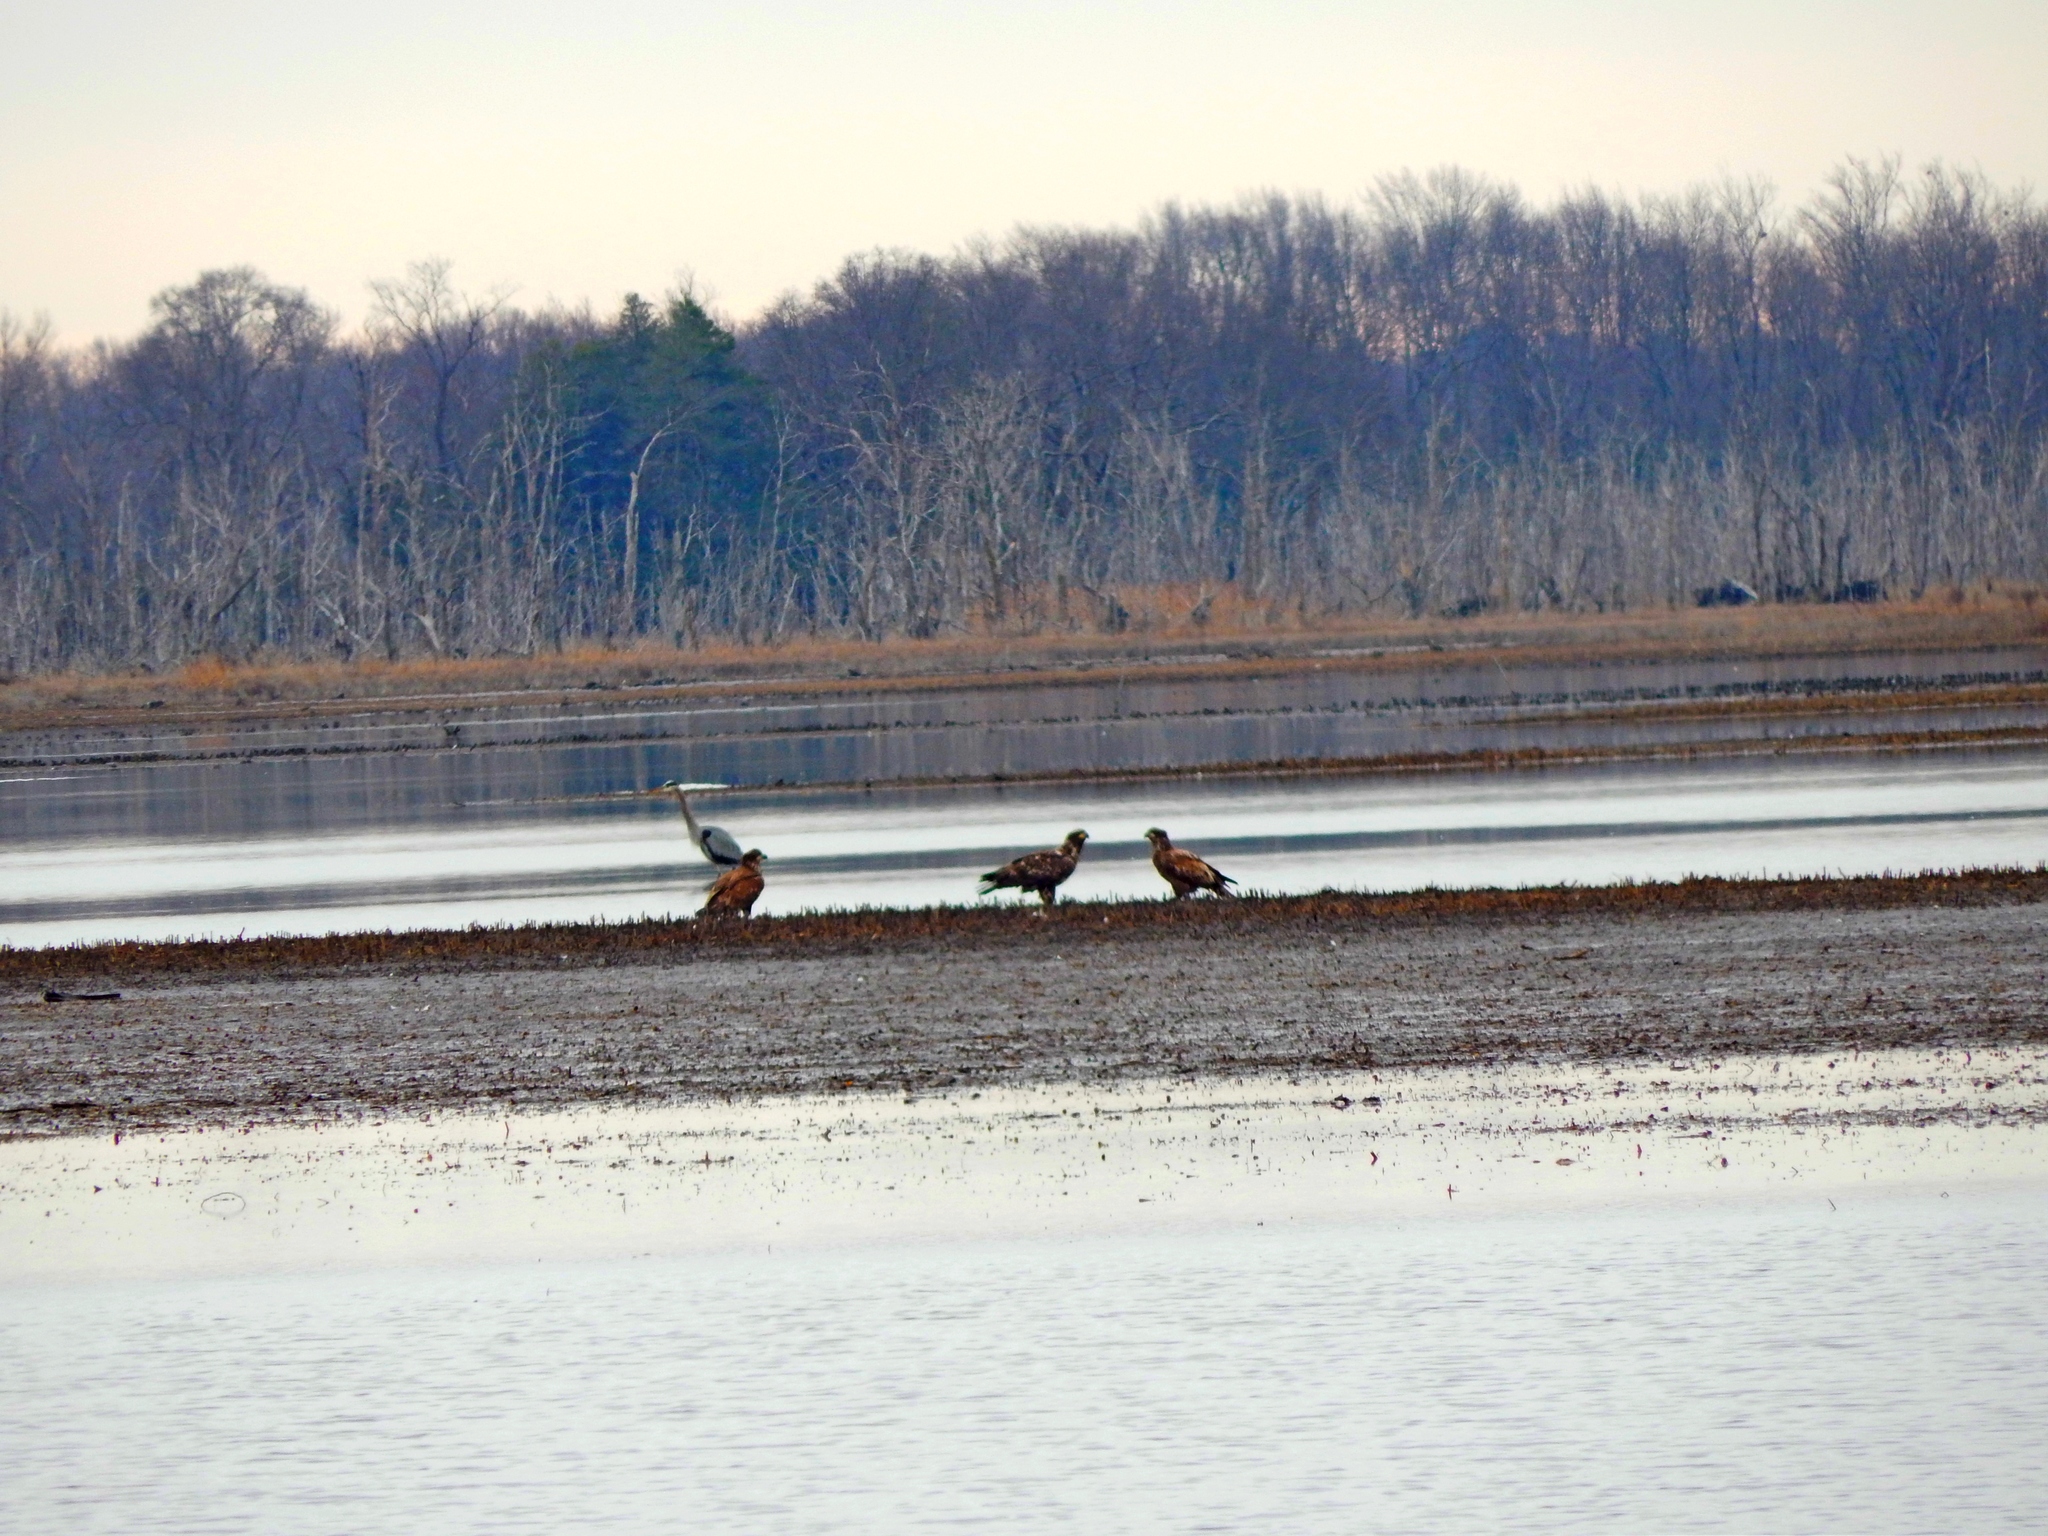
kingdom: Animalia
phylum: Chordata
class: Aves
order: Accipitriformes
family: Accipitridae
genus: Haliaeetus
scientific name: Haliaeetus leucocephalus
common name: Bald eagle
